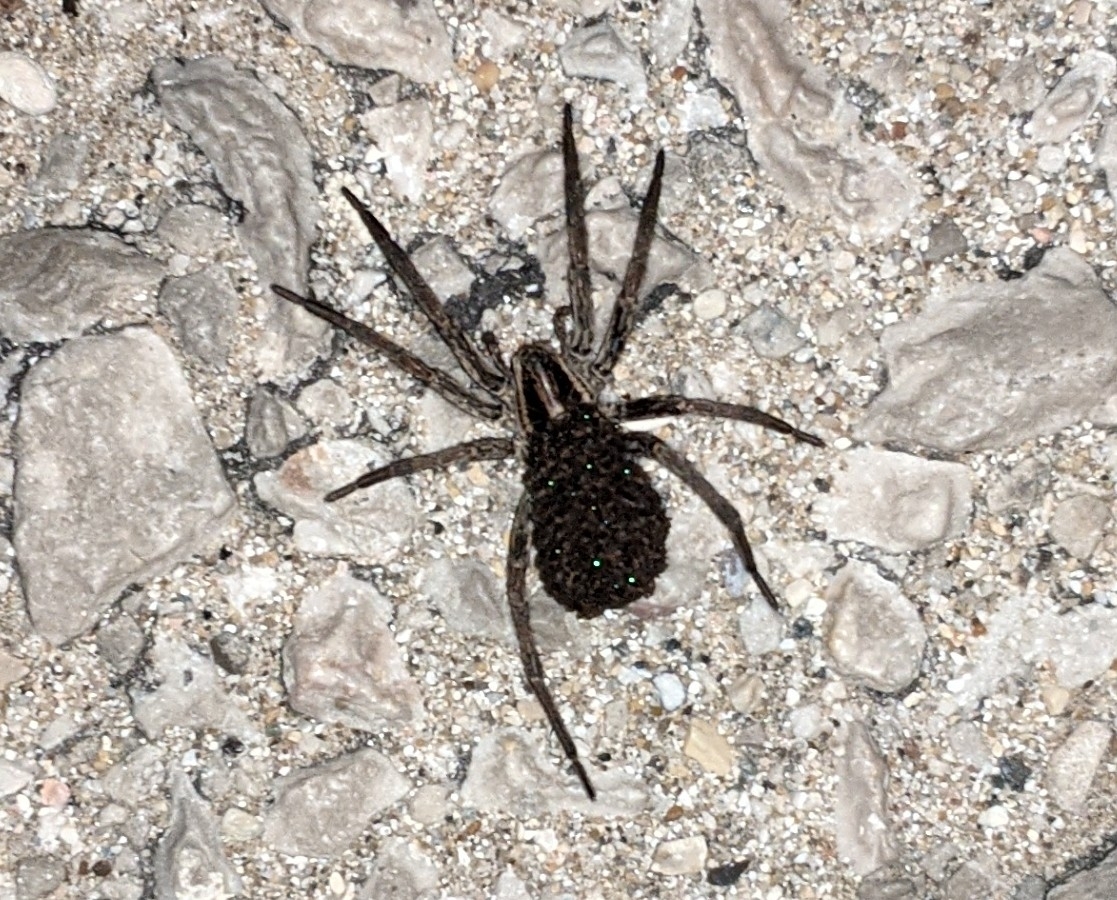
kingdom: Animalia
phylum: Arthropoda
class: Arachnida
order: Araneae
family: Lycosidae
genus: Hogna
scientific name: Hogna radiata
